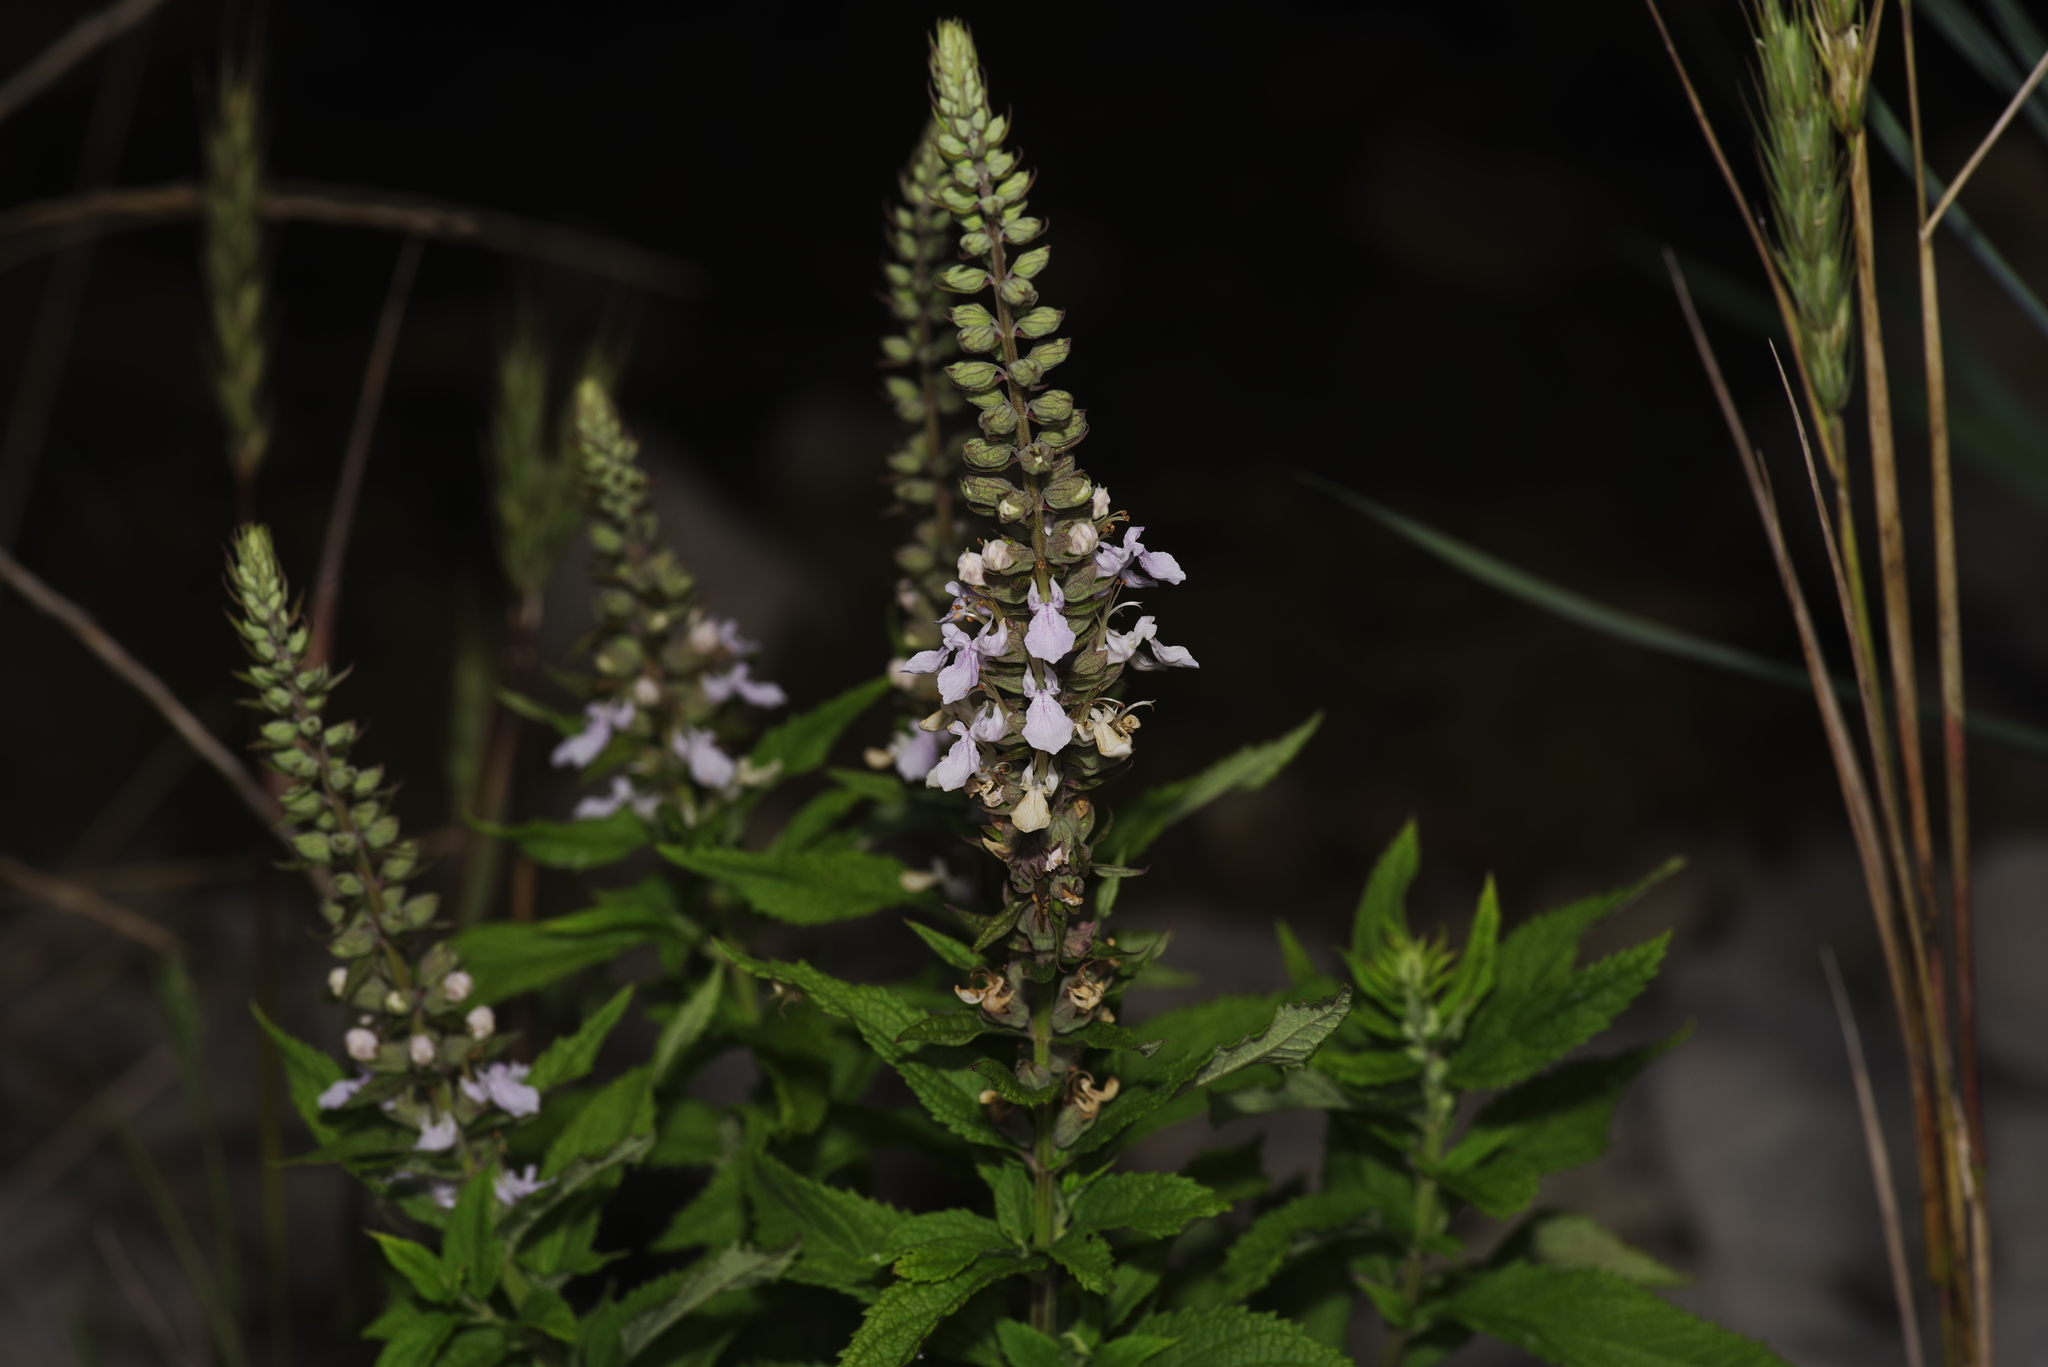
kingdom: Plantae
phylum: Tracheophyta
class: Magnoliopsida
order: Lamiales
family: Lamiaceae
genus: Teucrium
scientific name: Teucrium canadense
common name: American germander
